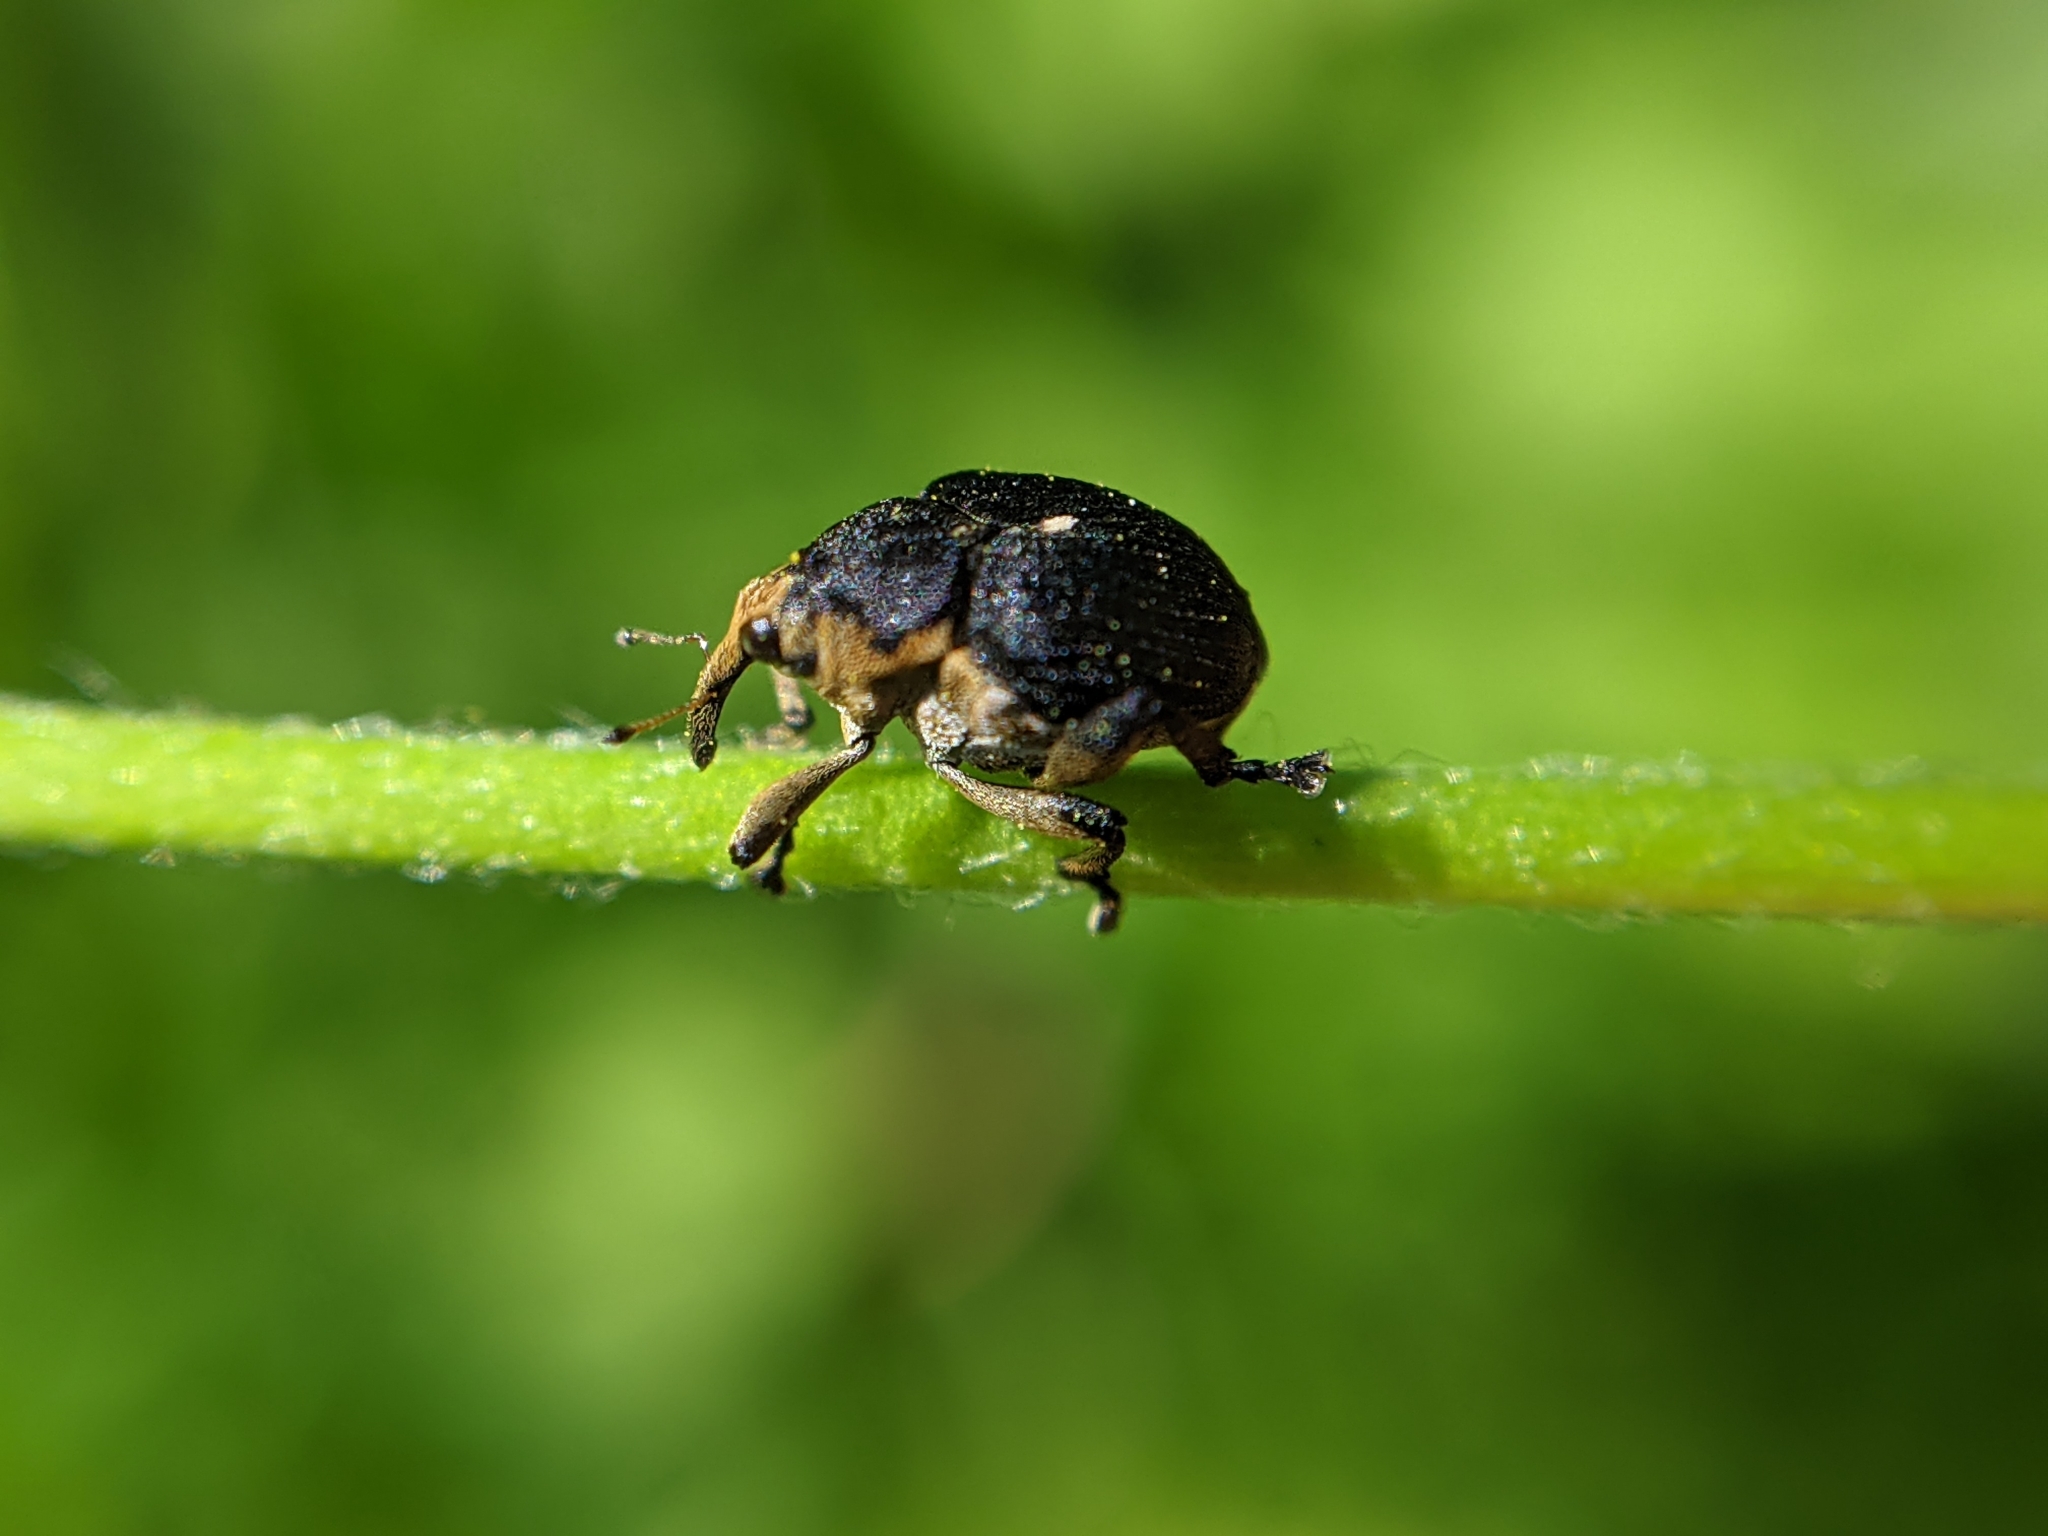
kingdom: Animalia
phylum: Arthropoda
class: Insecta
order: Coleoptera
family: Curculionidae
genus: Mononychus
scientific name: Mononychus punctumalbum
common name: Iris weevil
